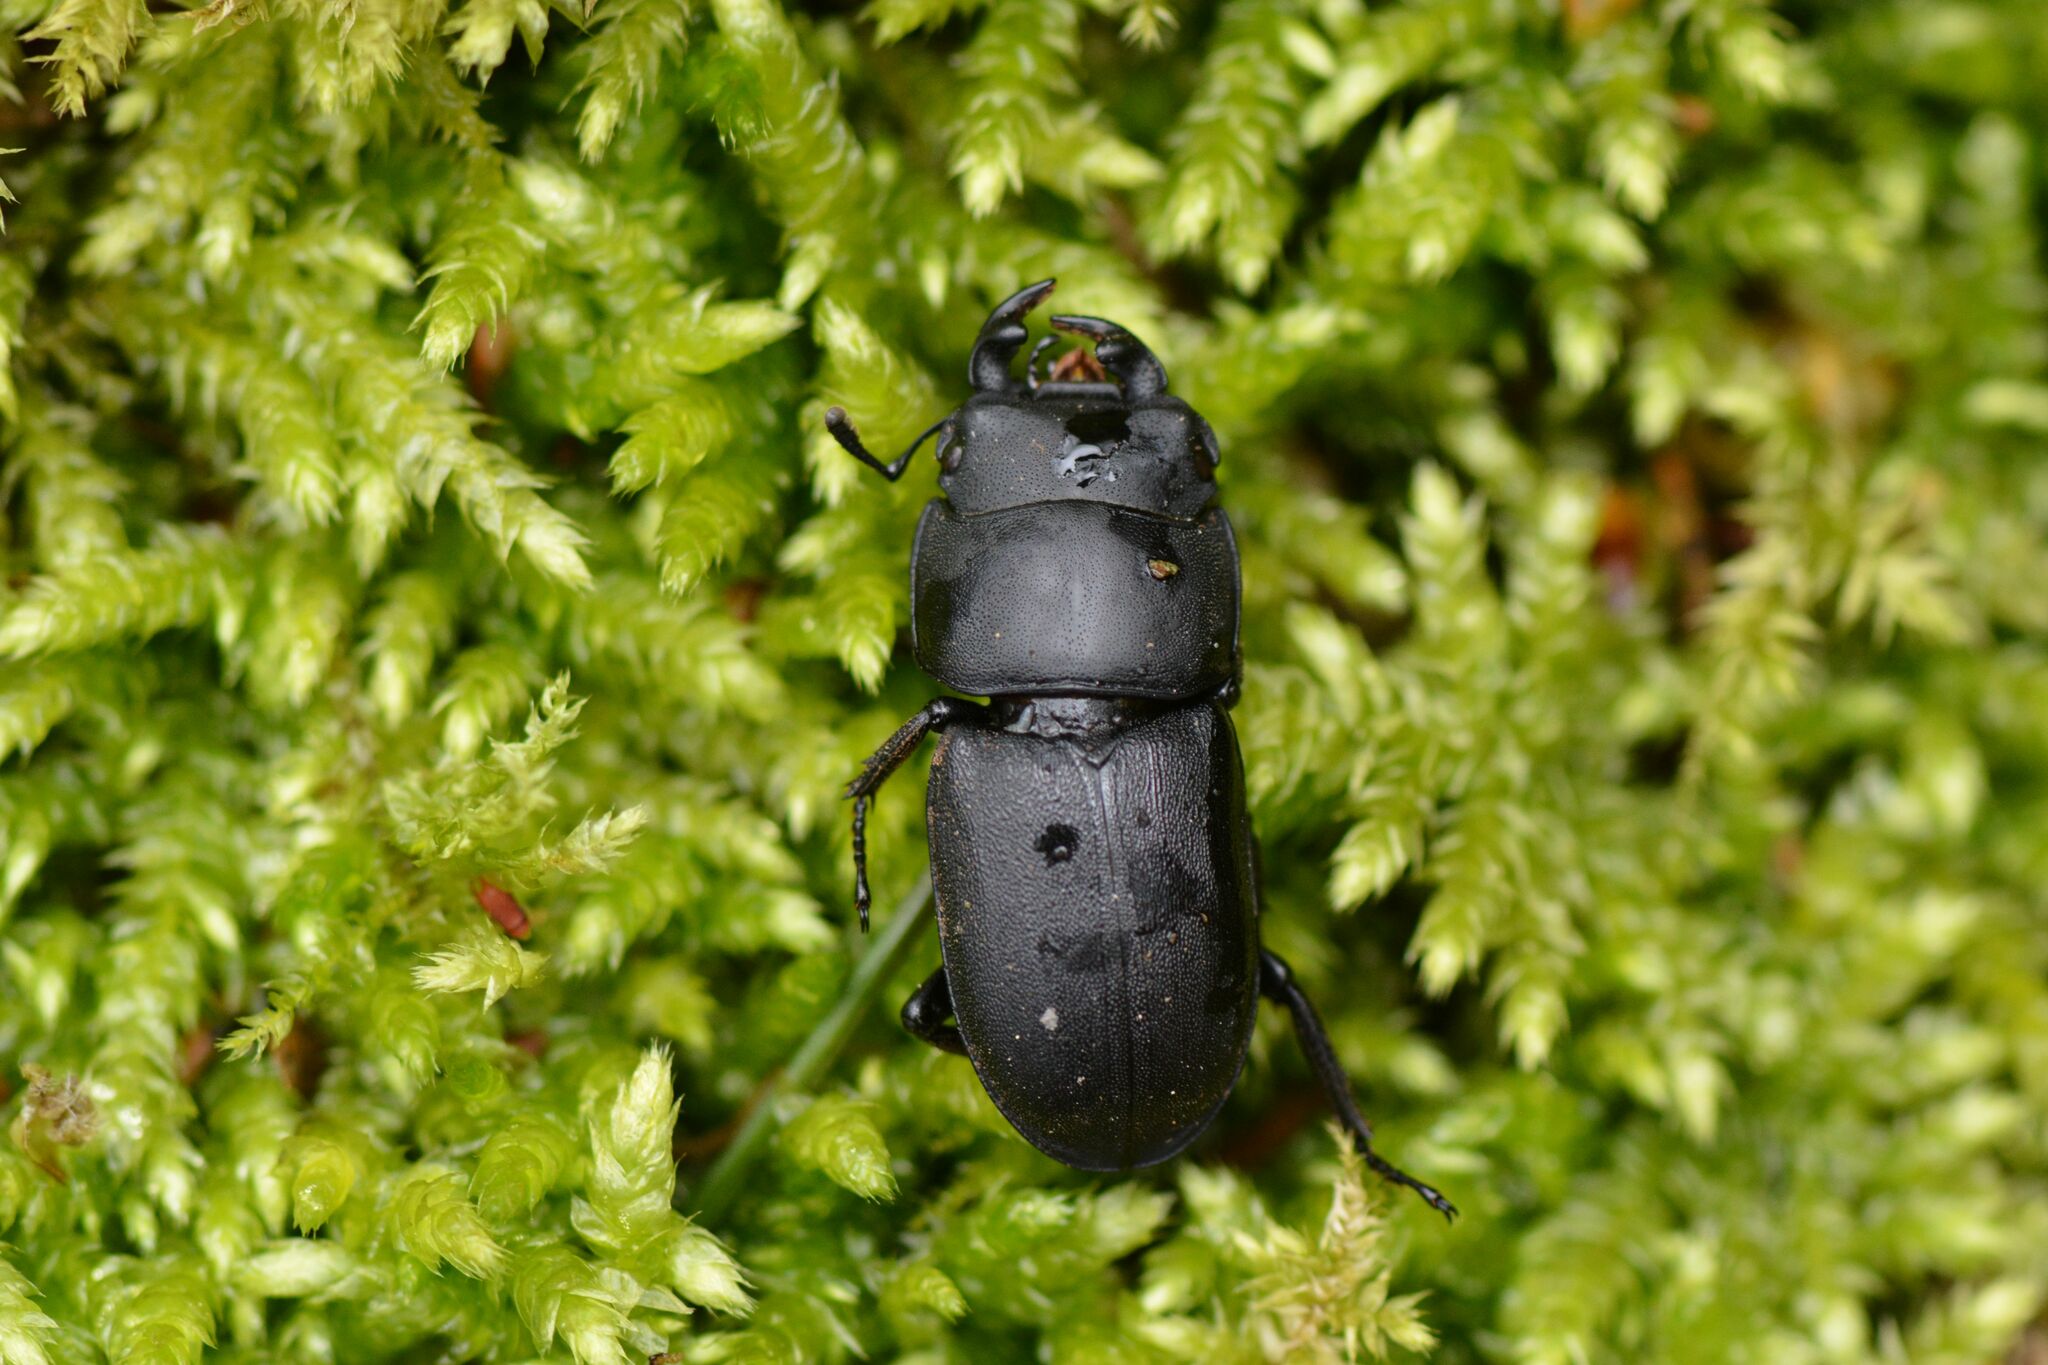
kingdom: Animalia
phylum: Arthropoda
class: Insecta
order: Coleoptera
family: Lucanidae
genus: Dorcus
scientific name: Dorcus parallelipipedus
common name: Lesser stag beetle
